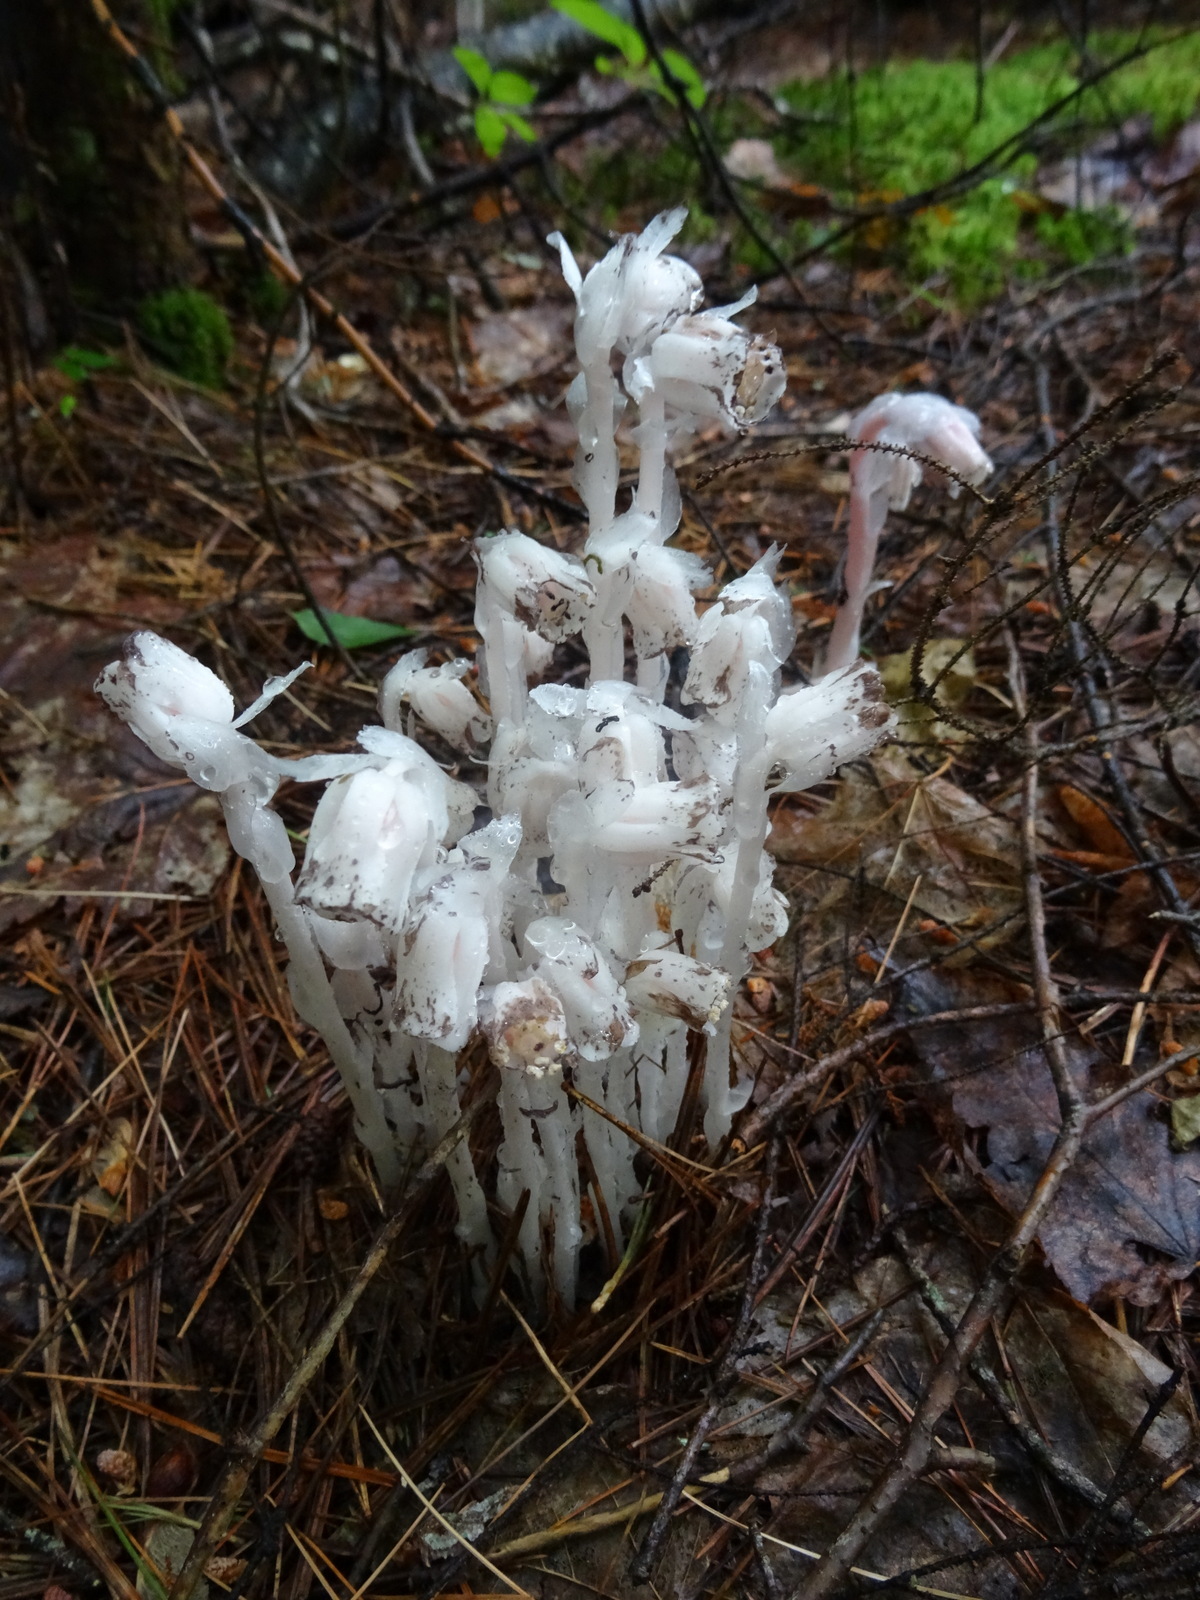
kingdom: Plantae
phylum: Tracheophyta
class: Magnoliopsida
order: Ericales
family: Ericaceae
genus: Monotropa
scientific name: Monotropa uniflora
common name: Convulsion root
